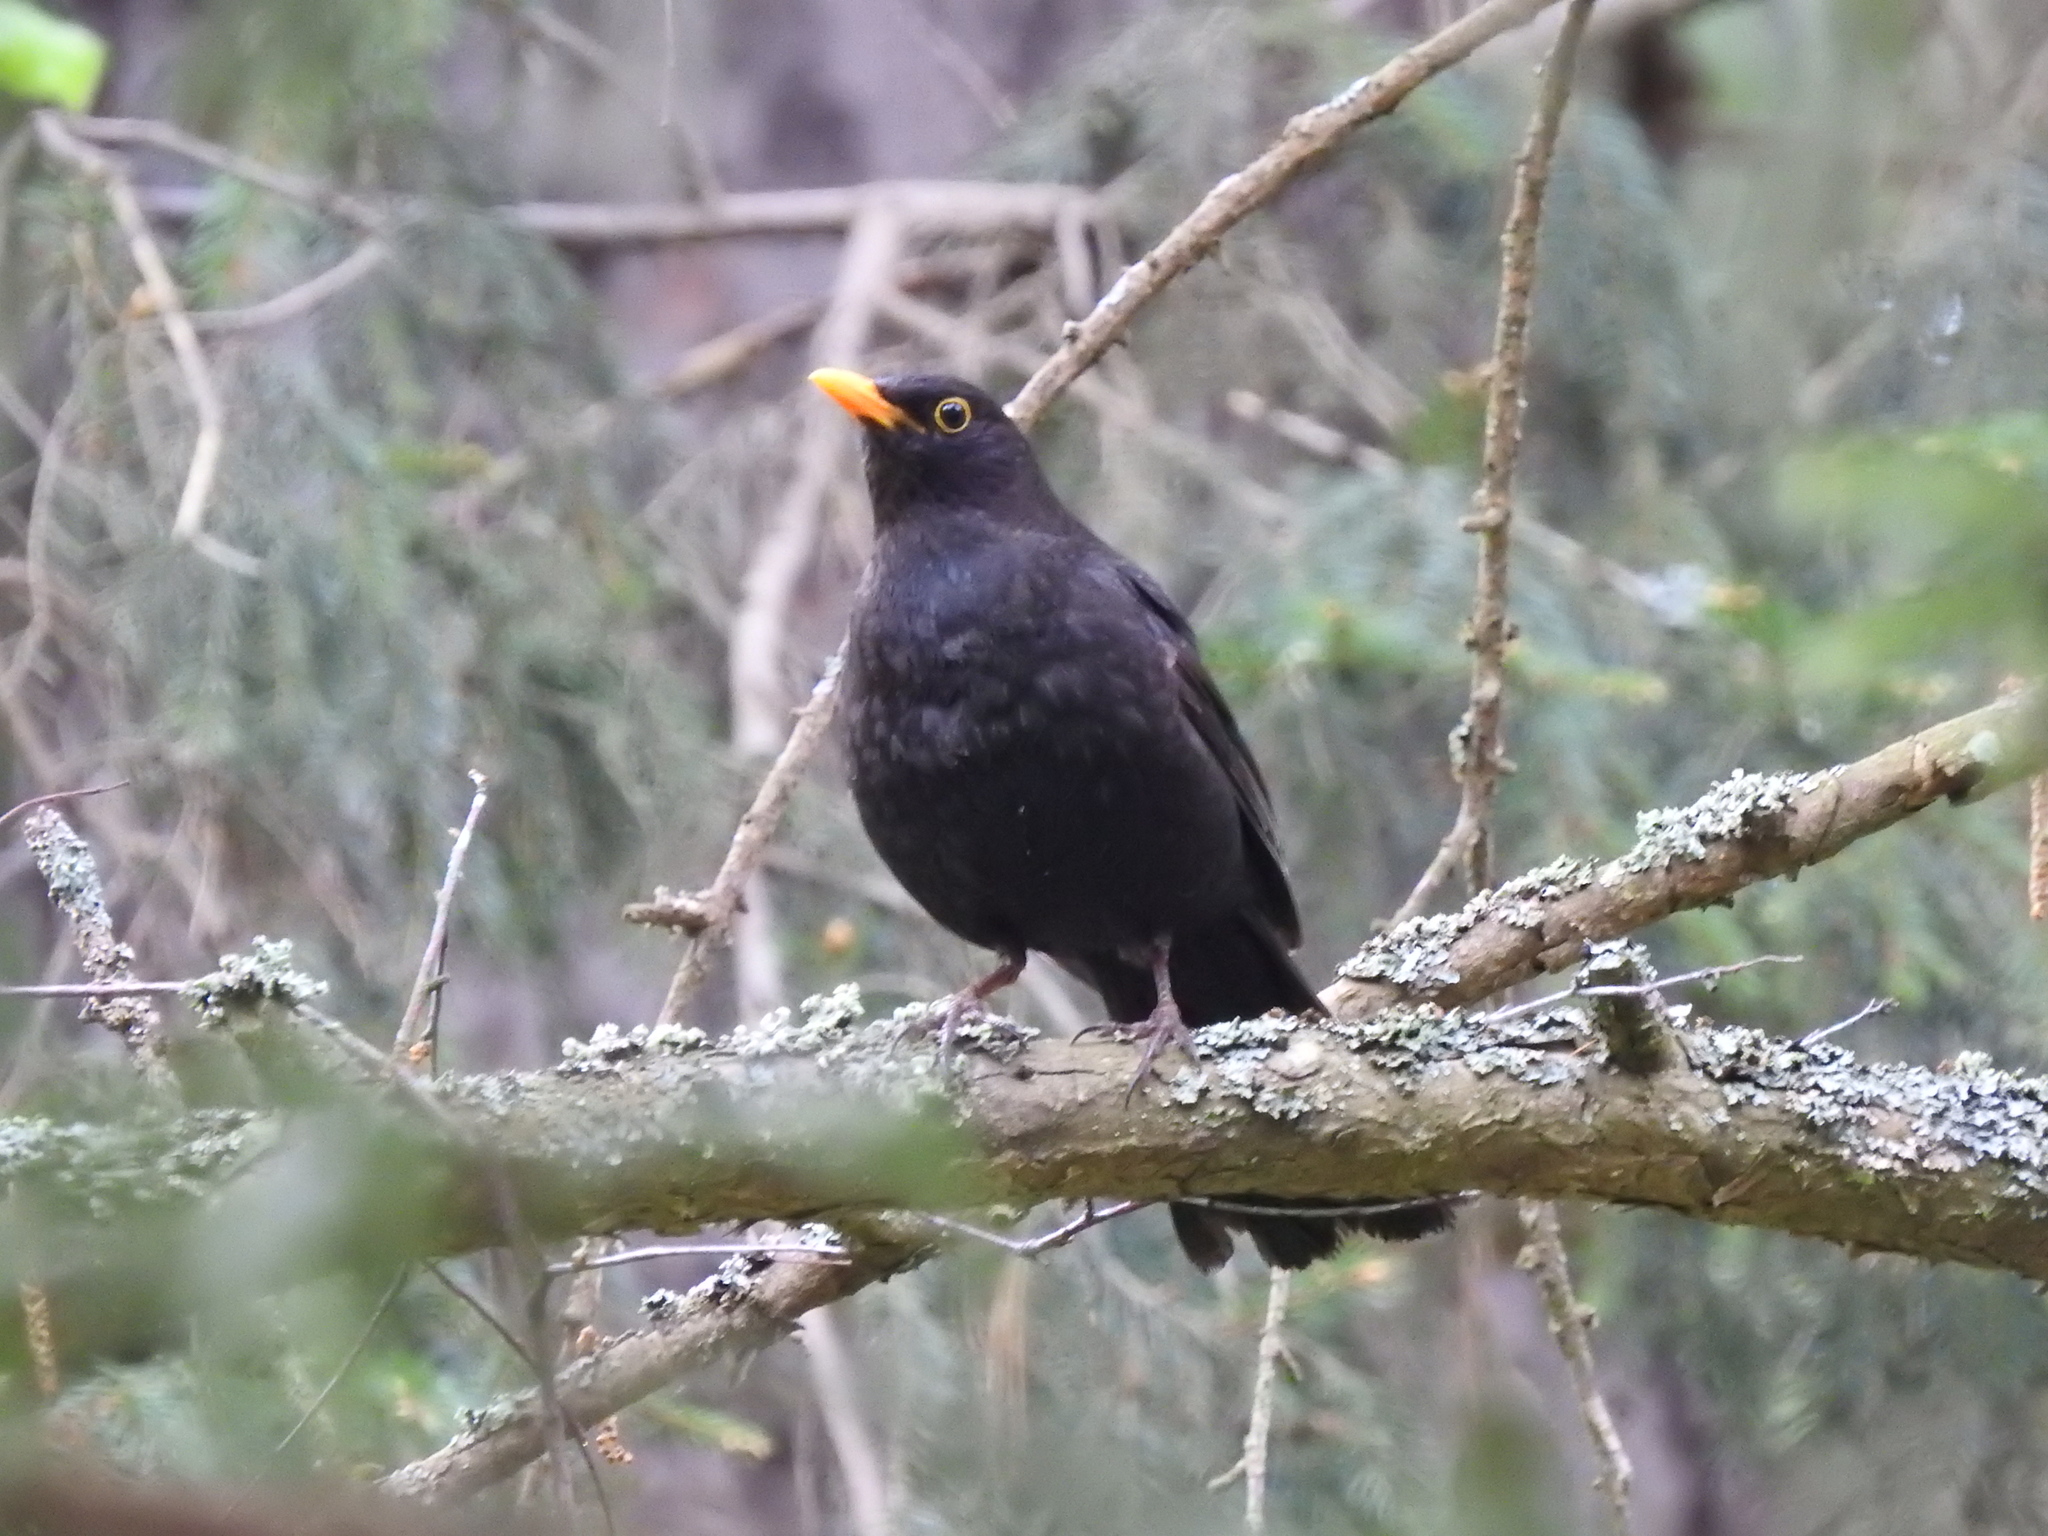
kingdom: Animalia
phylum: Chordata
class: Aves
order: Passeriformes
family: Turdidae
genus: Turdus
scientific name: Turdus merula
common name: Common blackbird
